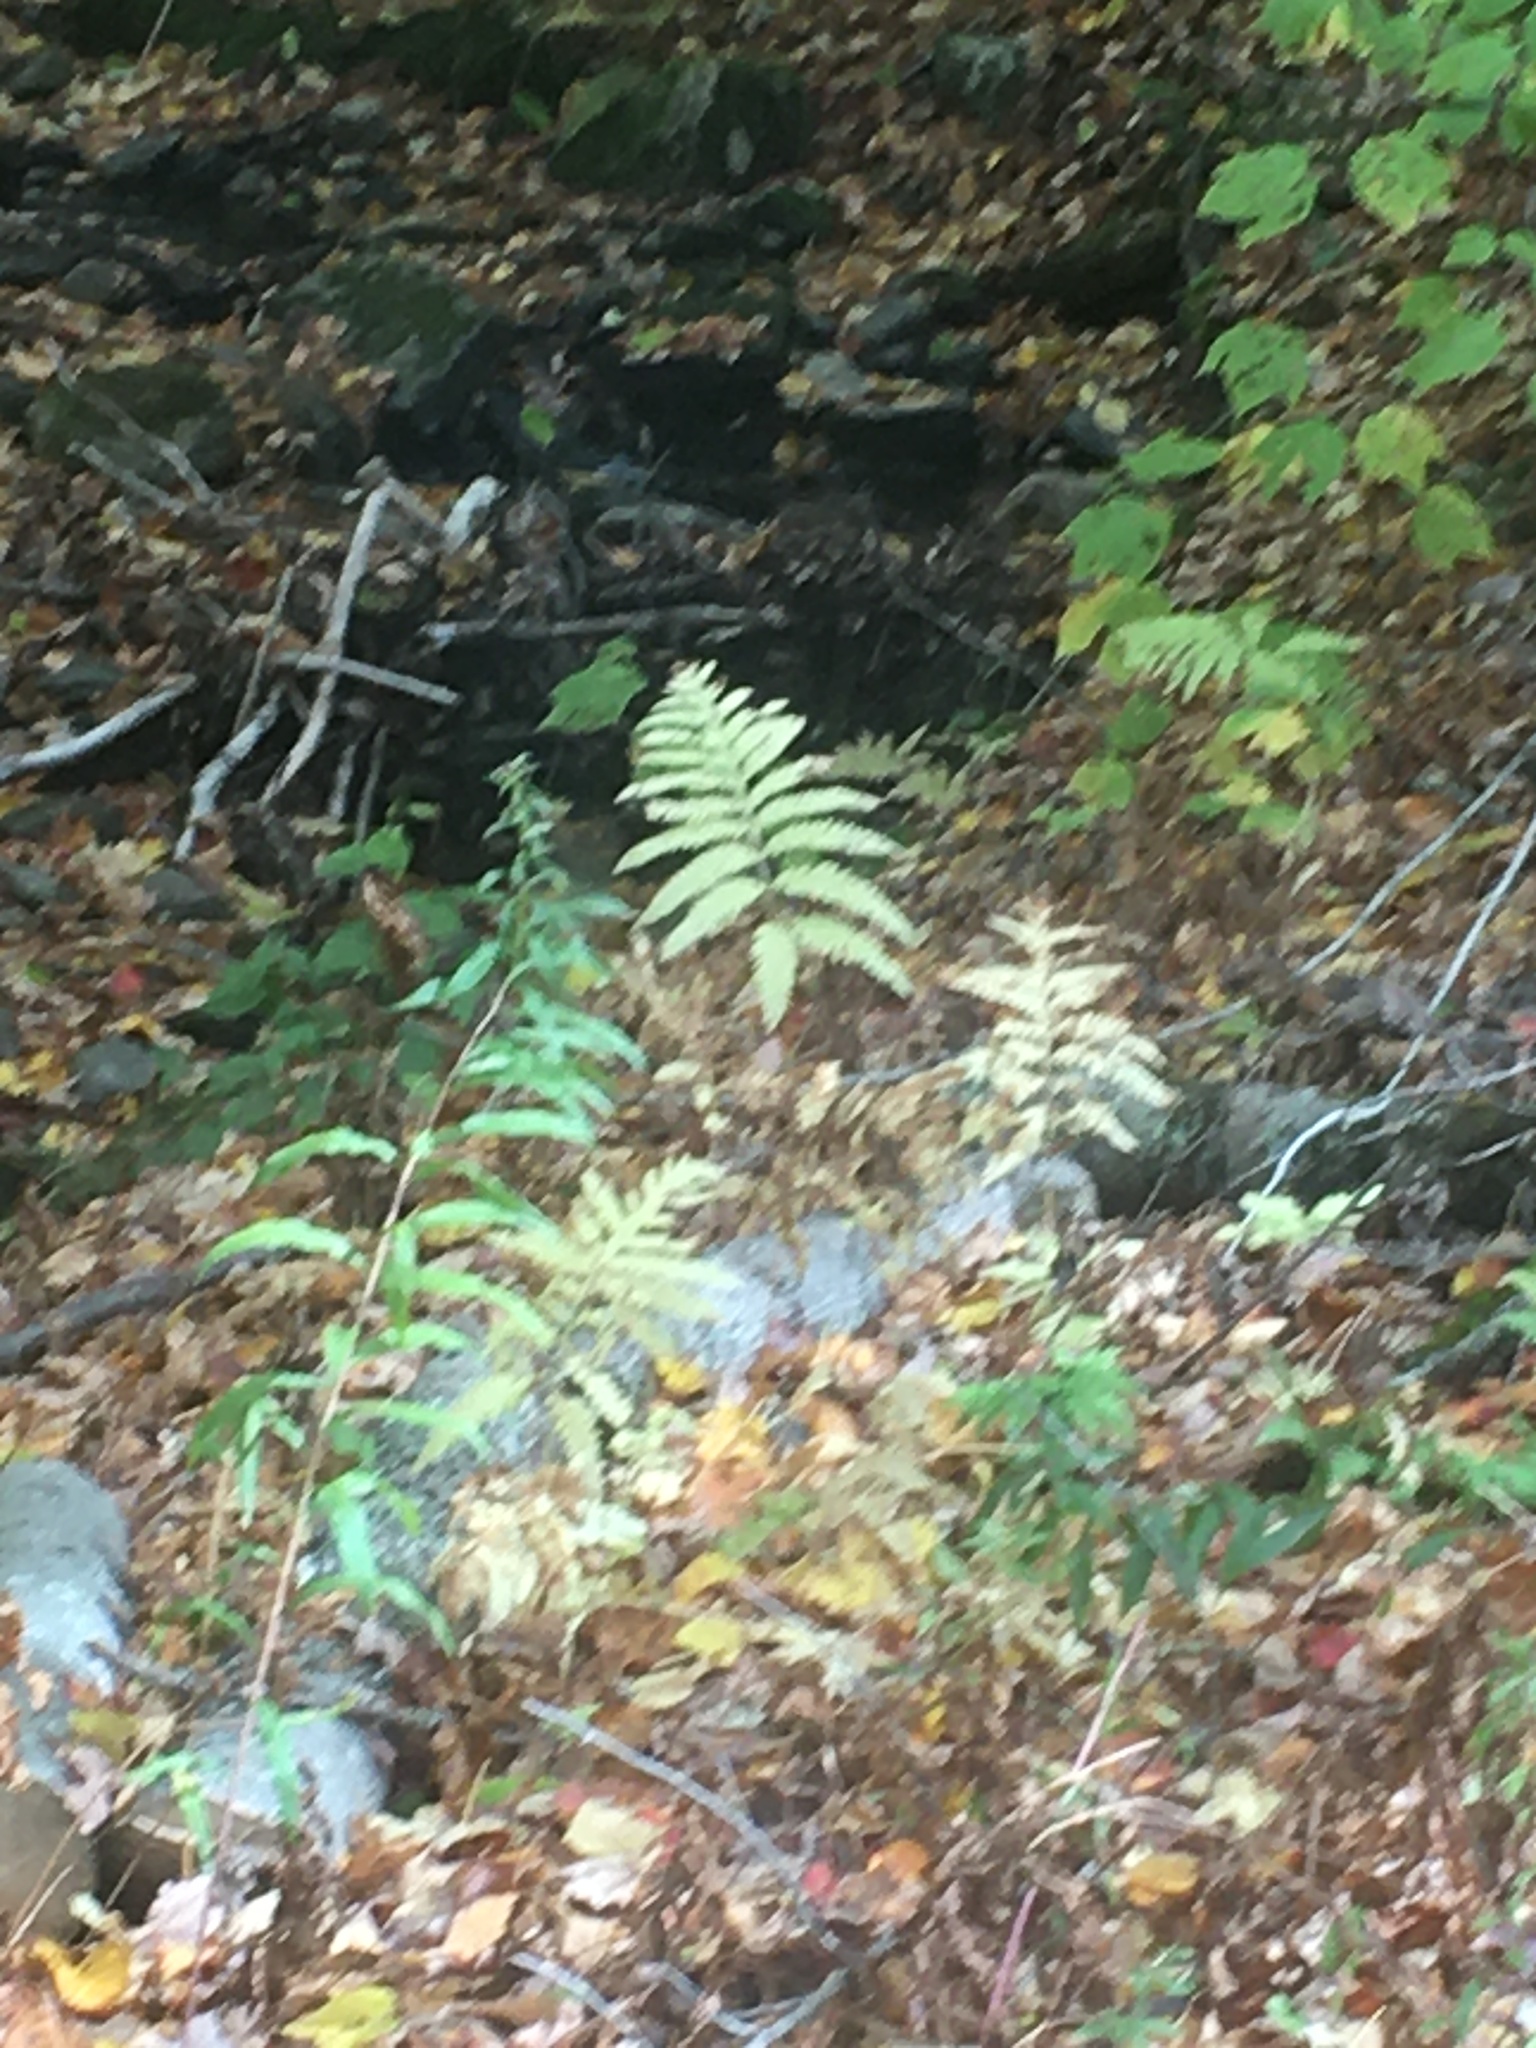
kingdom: Plantae
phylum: Tracheophyta
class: Polypodiopsida
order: Polypodiales
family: Onocleaceae
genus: Onoclea
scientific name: Onoclea sensibilis
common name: Sensitive fern
